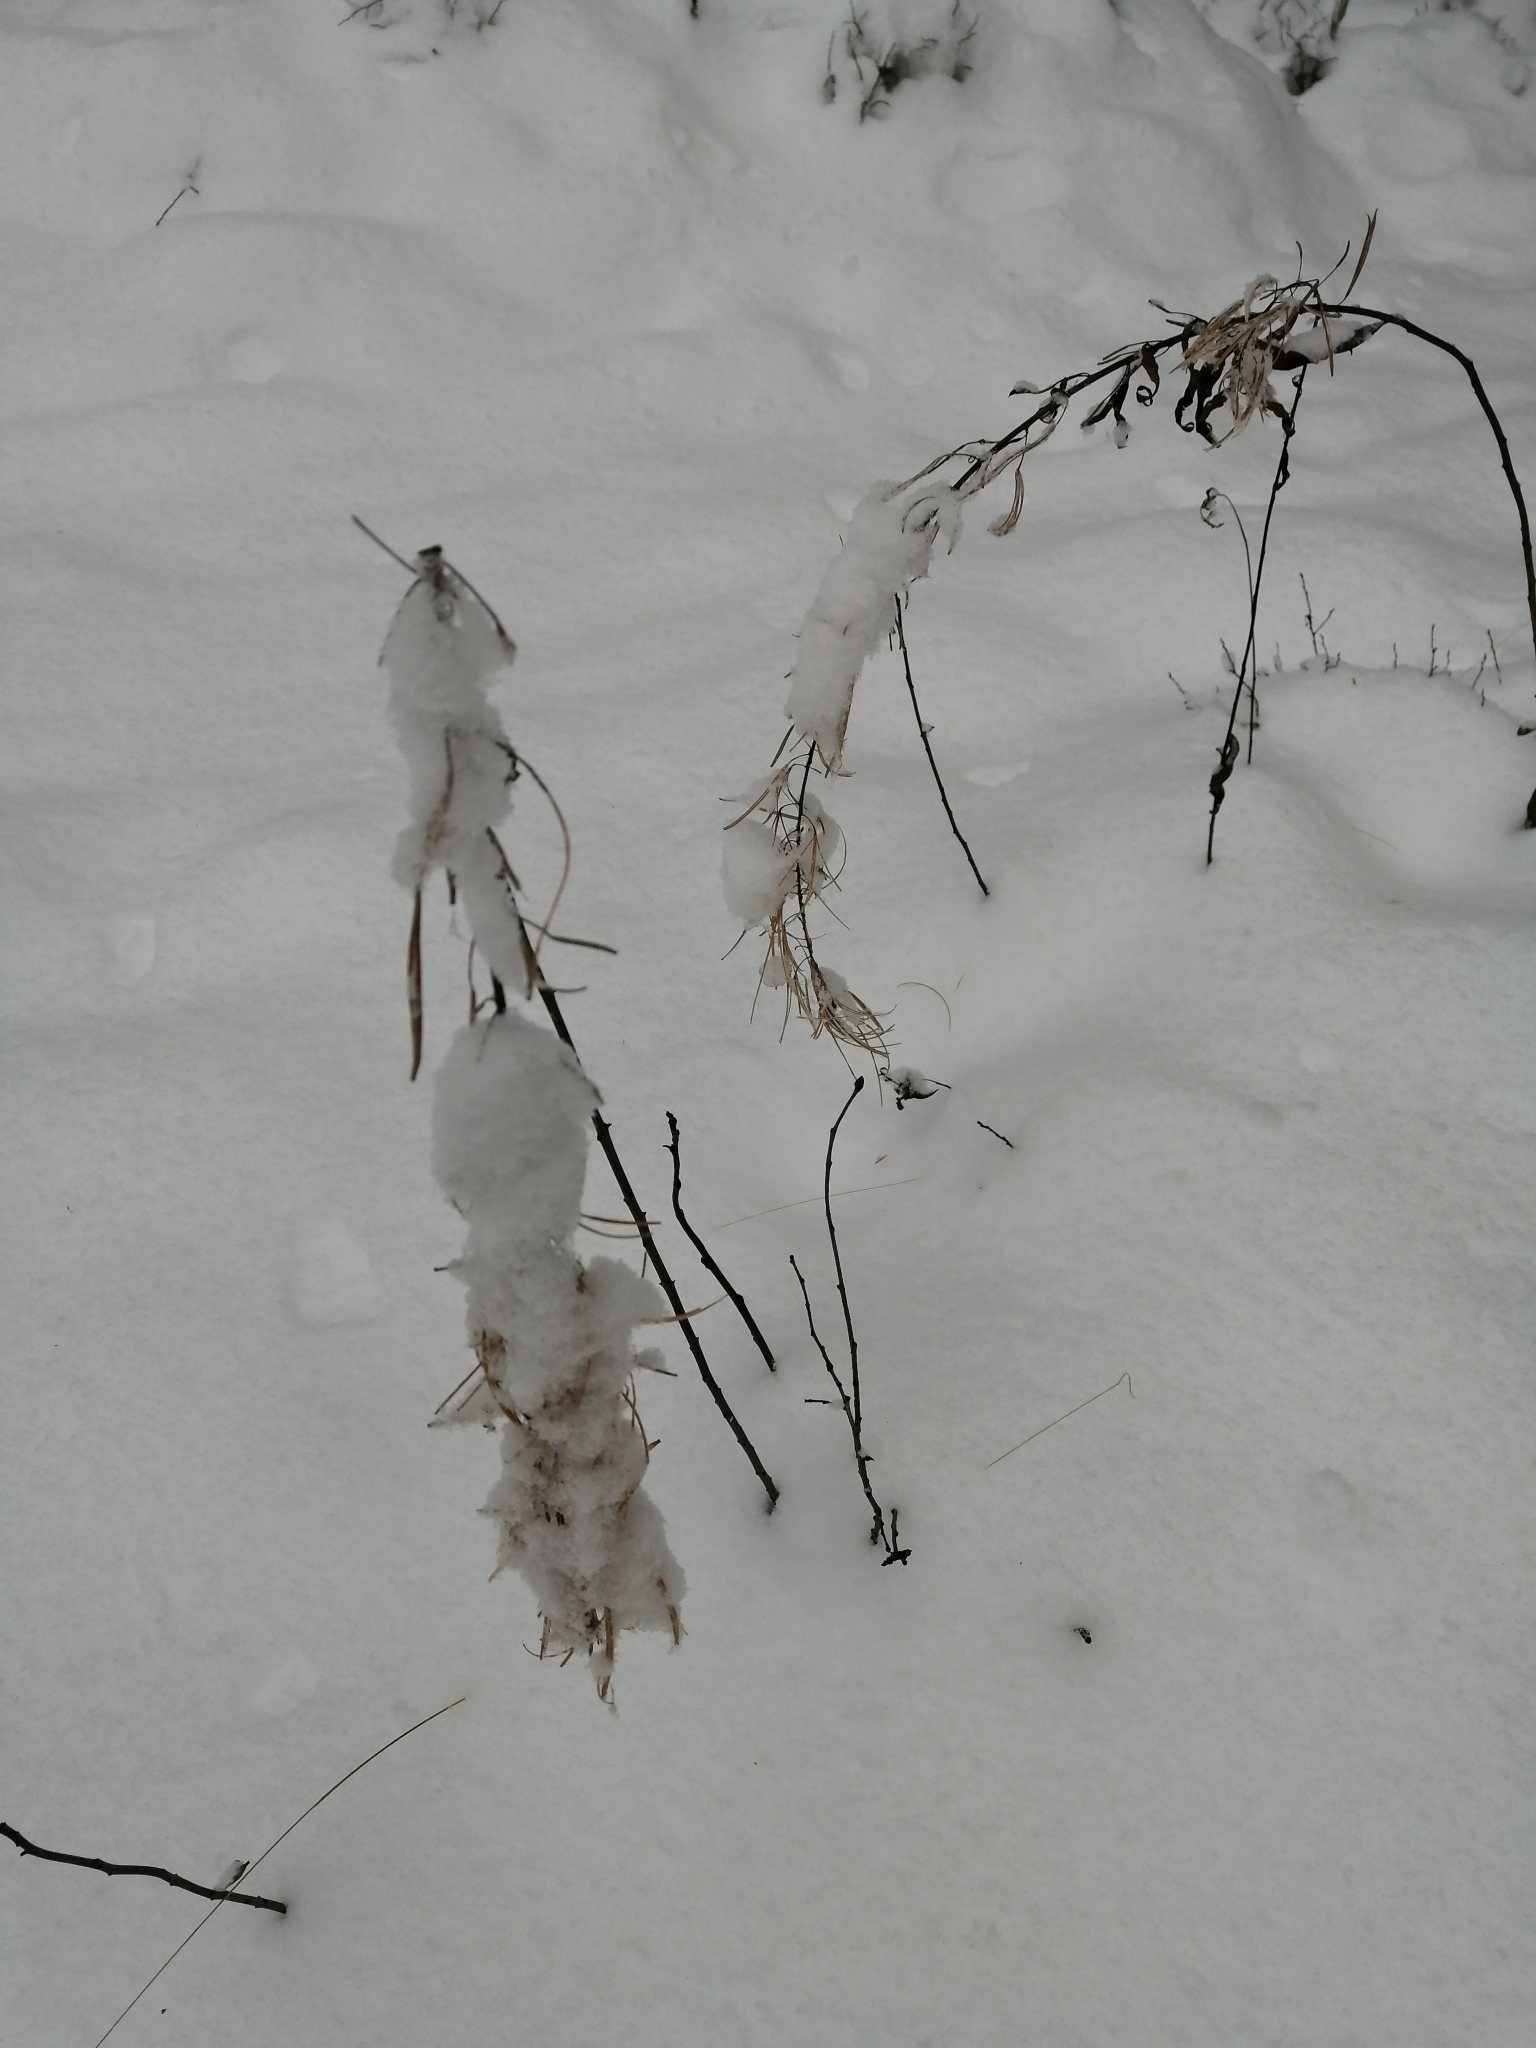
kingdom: Plantae
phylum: Tracheophyta
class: Magnoliopsida
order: Myrtales
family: Onagraceae
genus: Chamaenerion
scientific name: Chamaenerion angustifolium
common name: Fireweed
